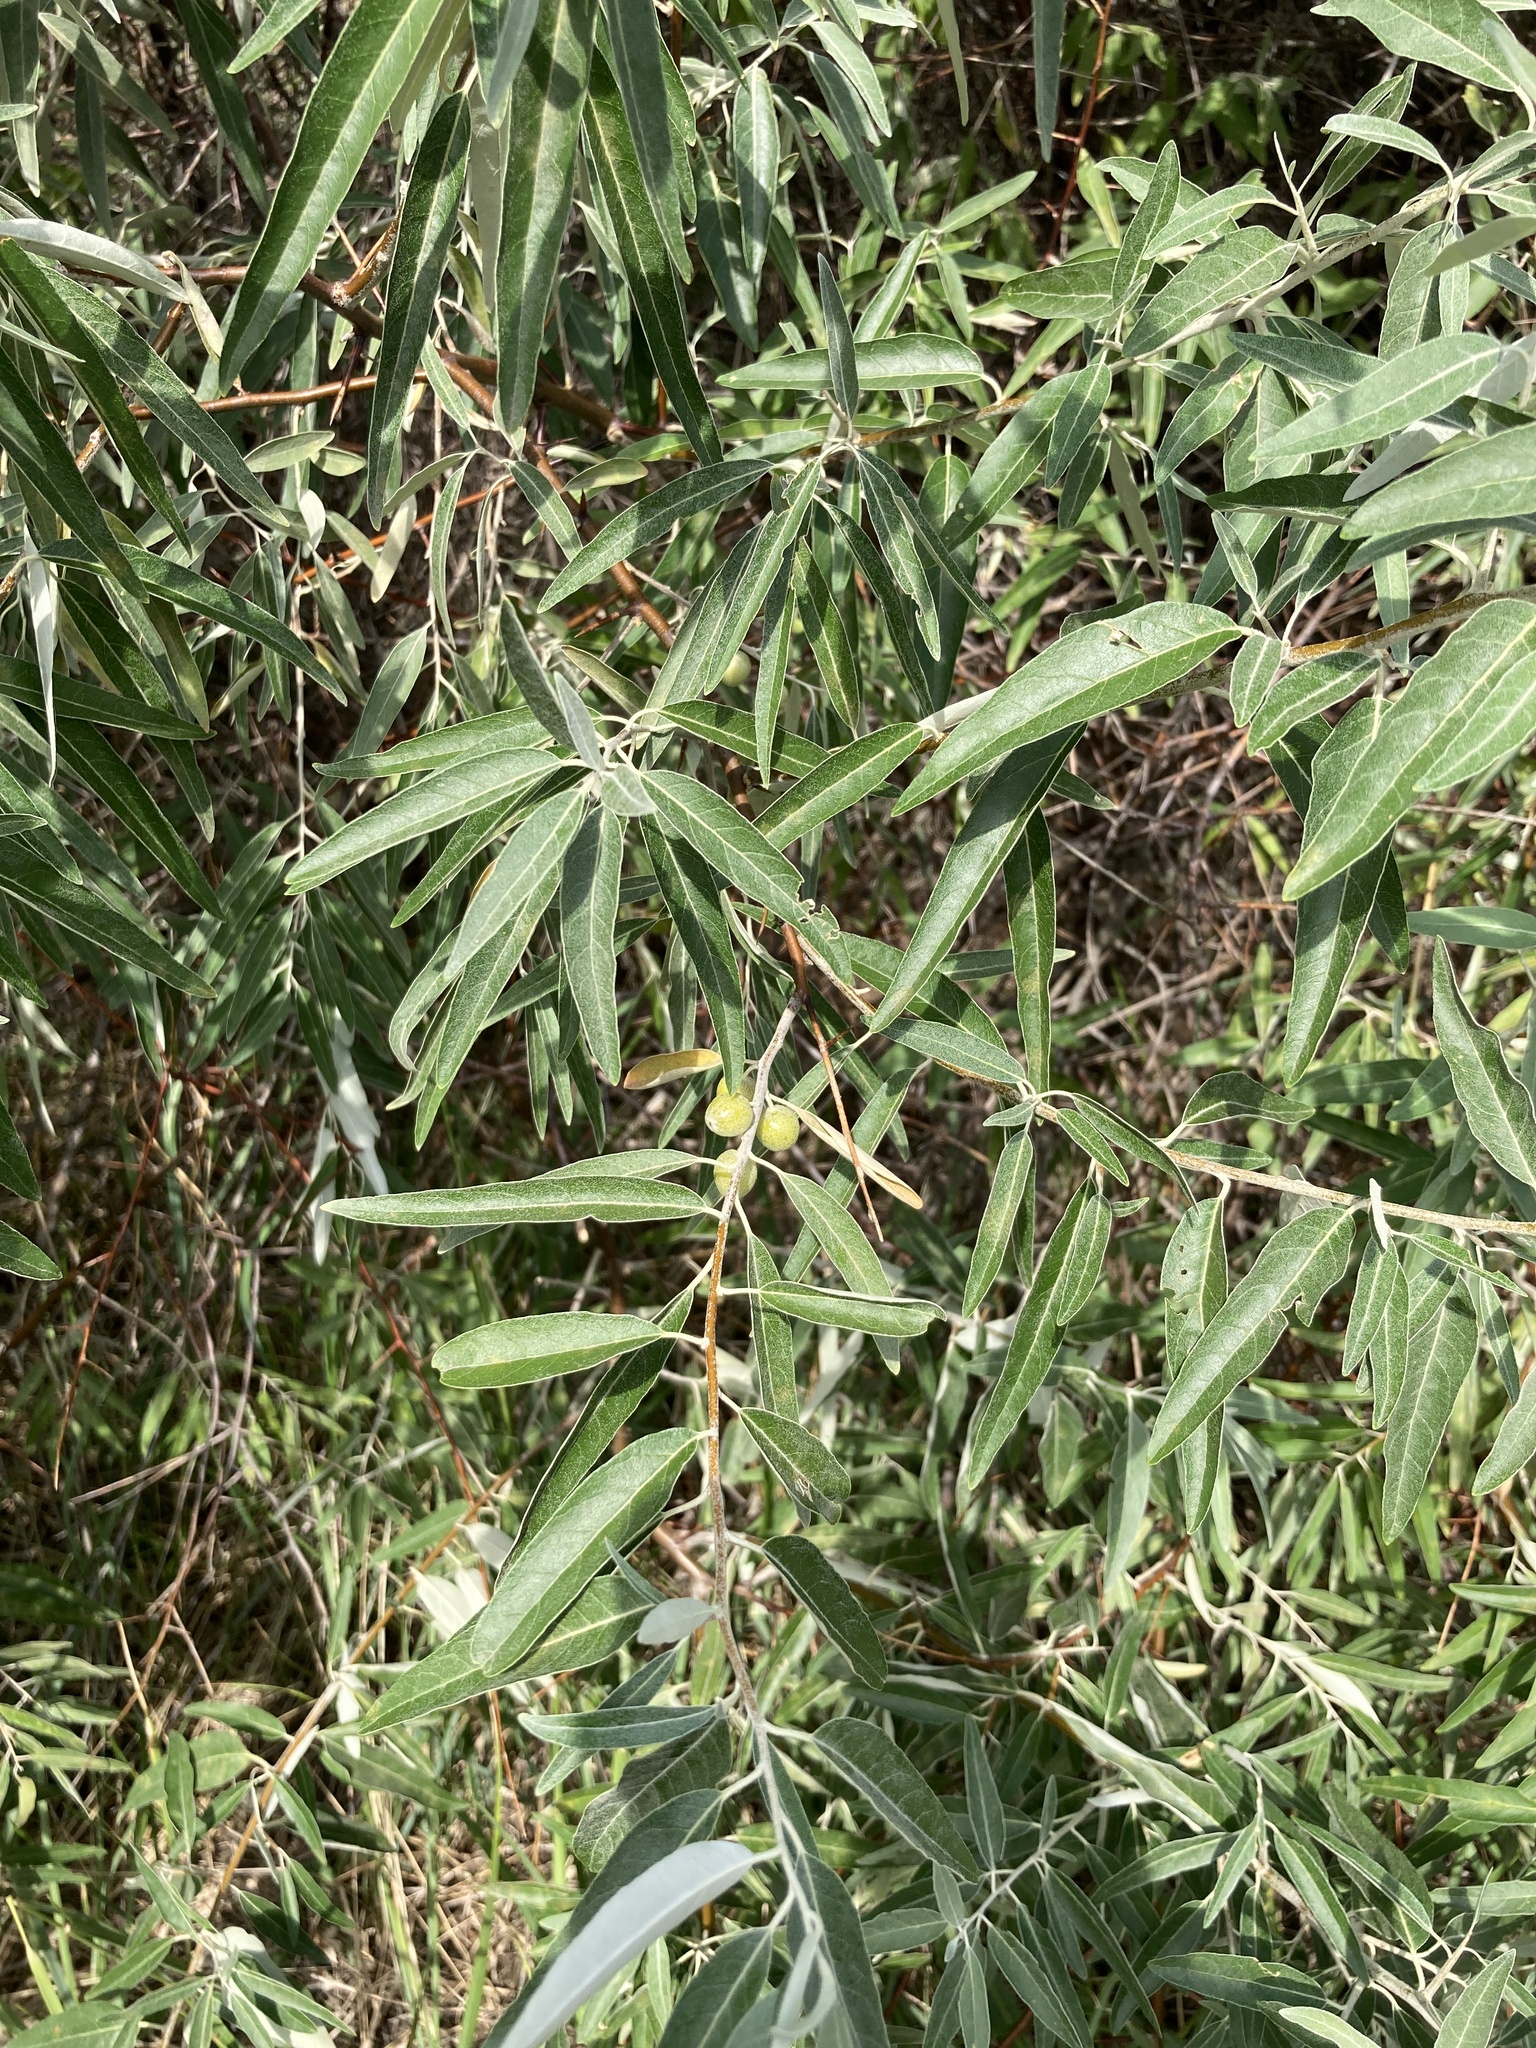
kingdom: Plantae
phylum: Tracheophyta
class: Magnoliopsida
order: Rosales
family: Elaeagnaceae
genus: Elaeagnus
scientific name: Elaeagnus angustifolia
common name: Russian olive
